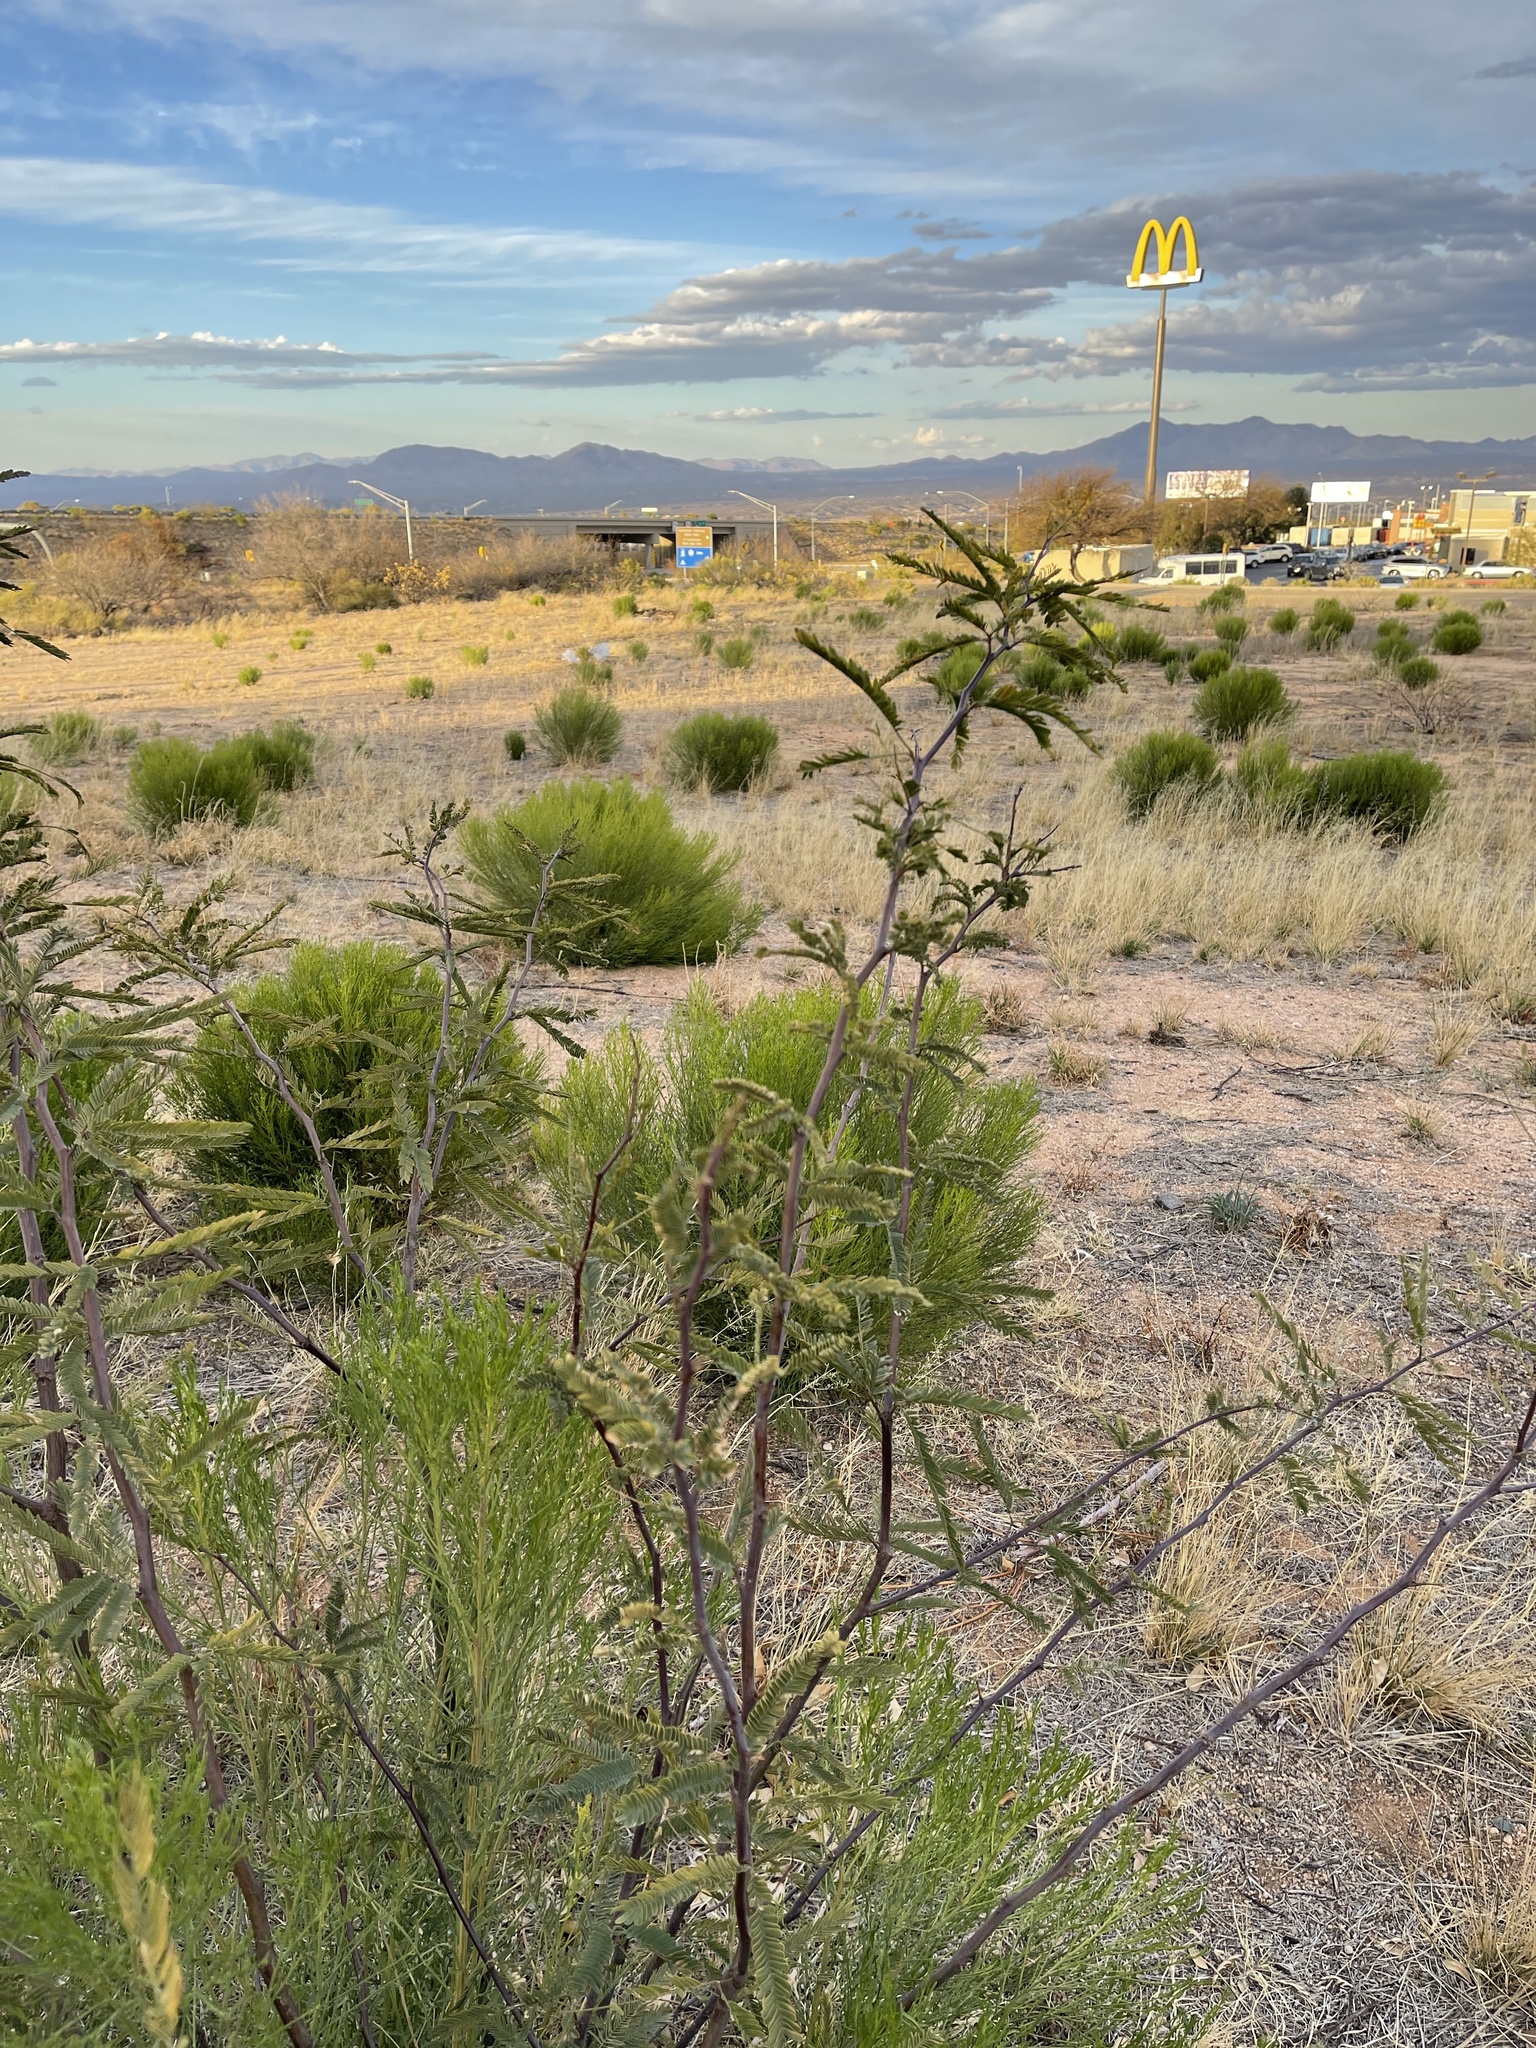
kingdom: Plantae
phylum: Tracheophyta
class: Magnoliopsida
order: Fabales
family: Fabaceae
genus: Prosopis
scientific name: Prosopis velutina
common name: Velvet mesquite
